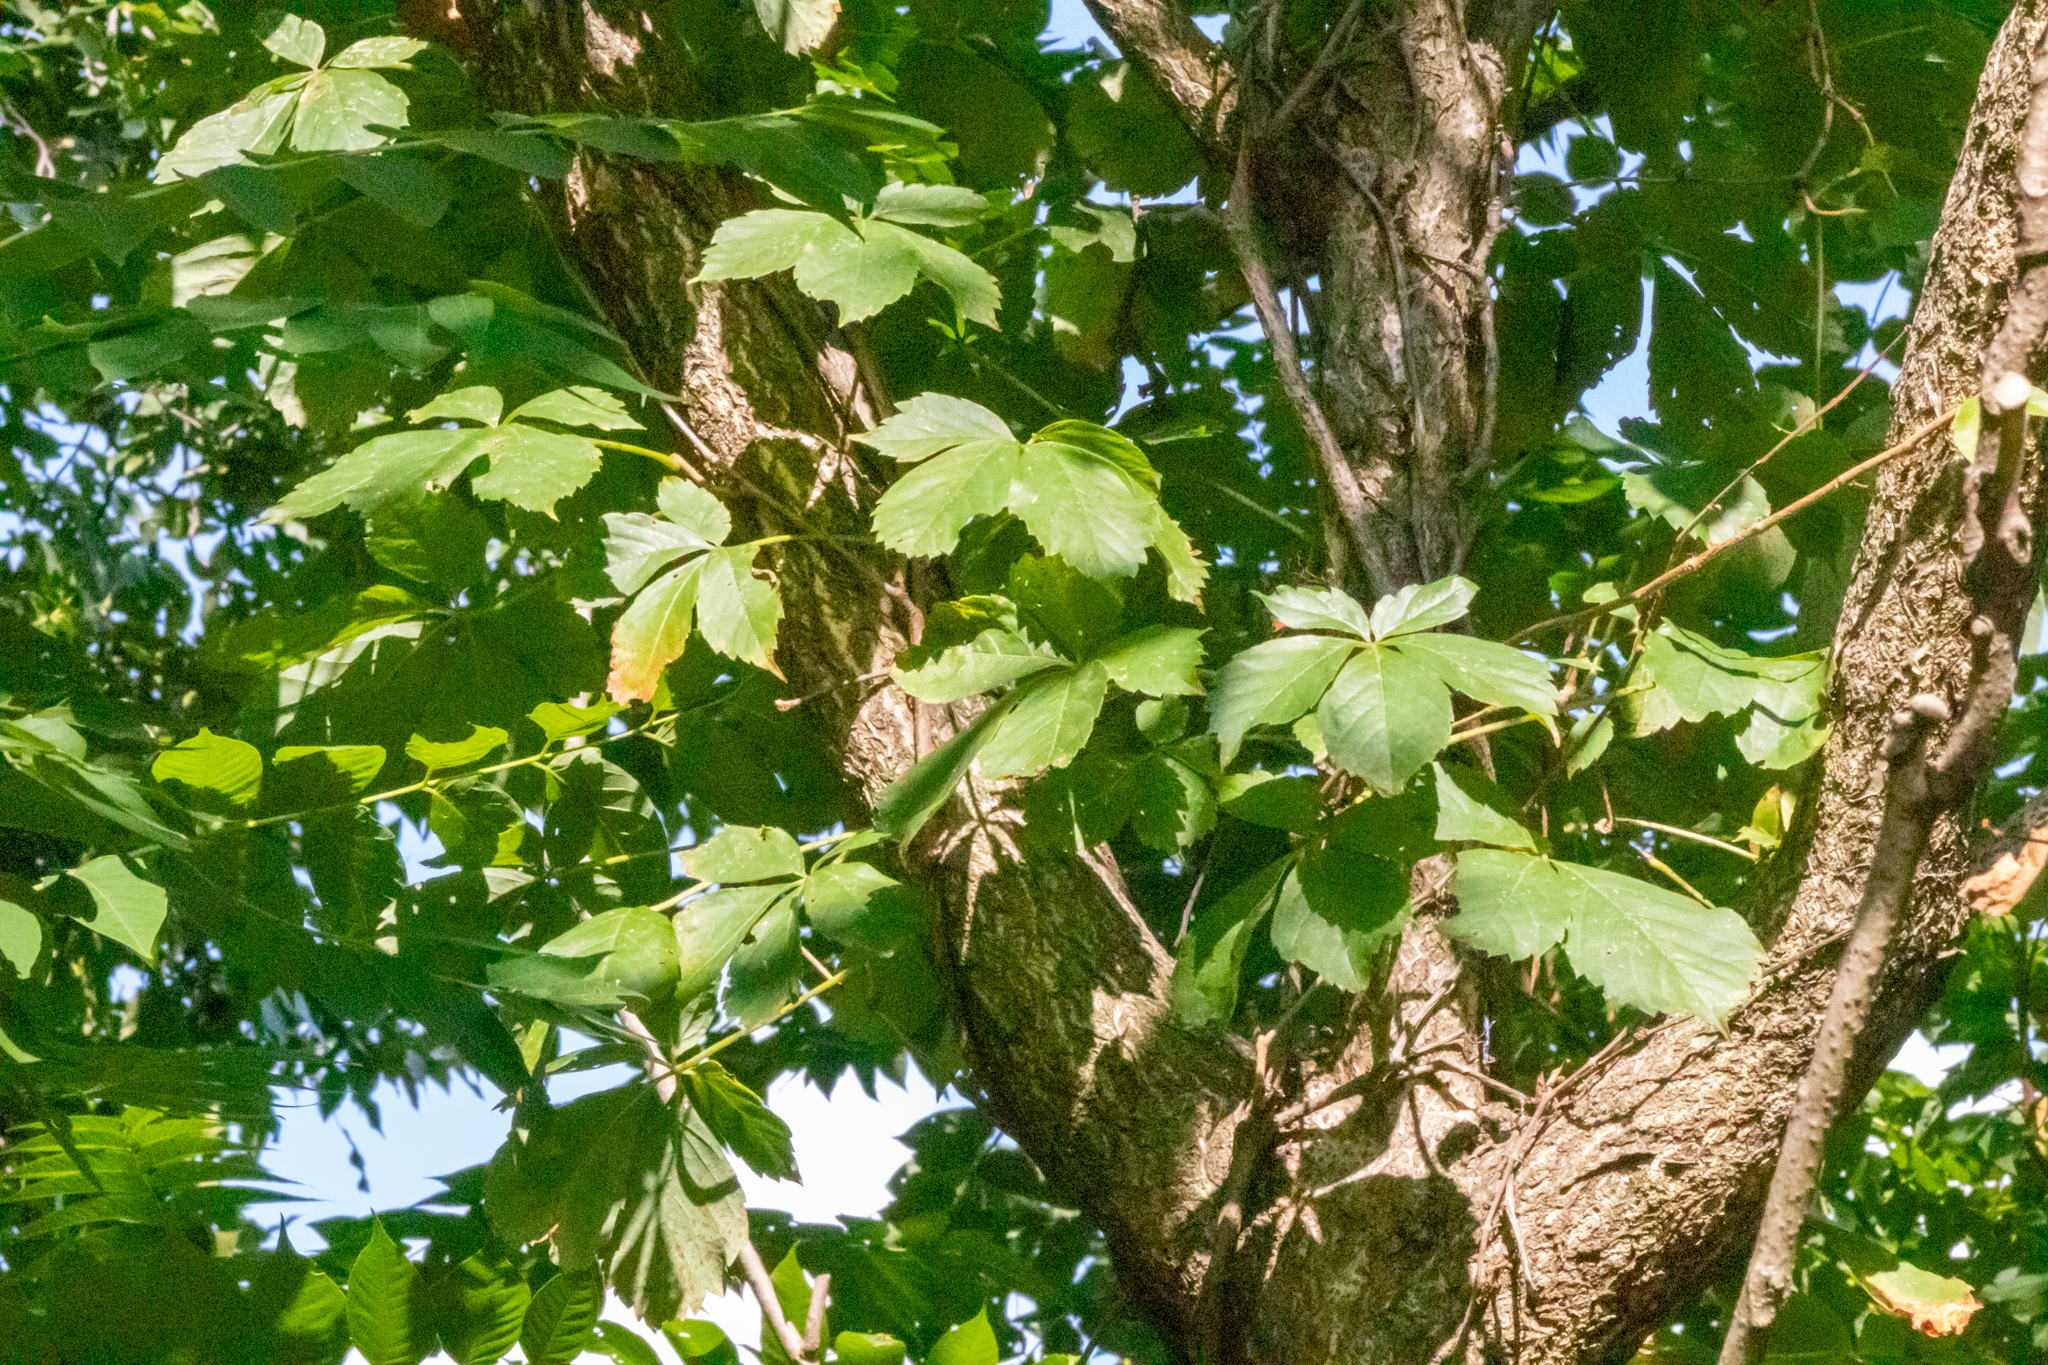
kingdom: Plantae
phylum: Tracheophyta
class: Magnoliopsida
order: Vitales
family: Vitaceae
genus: Parthenocissus
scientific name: Parthenocissus quinquefolia
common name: Virginia-creeper
